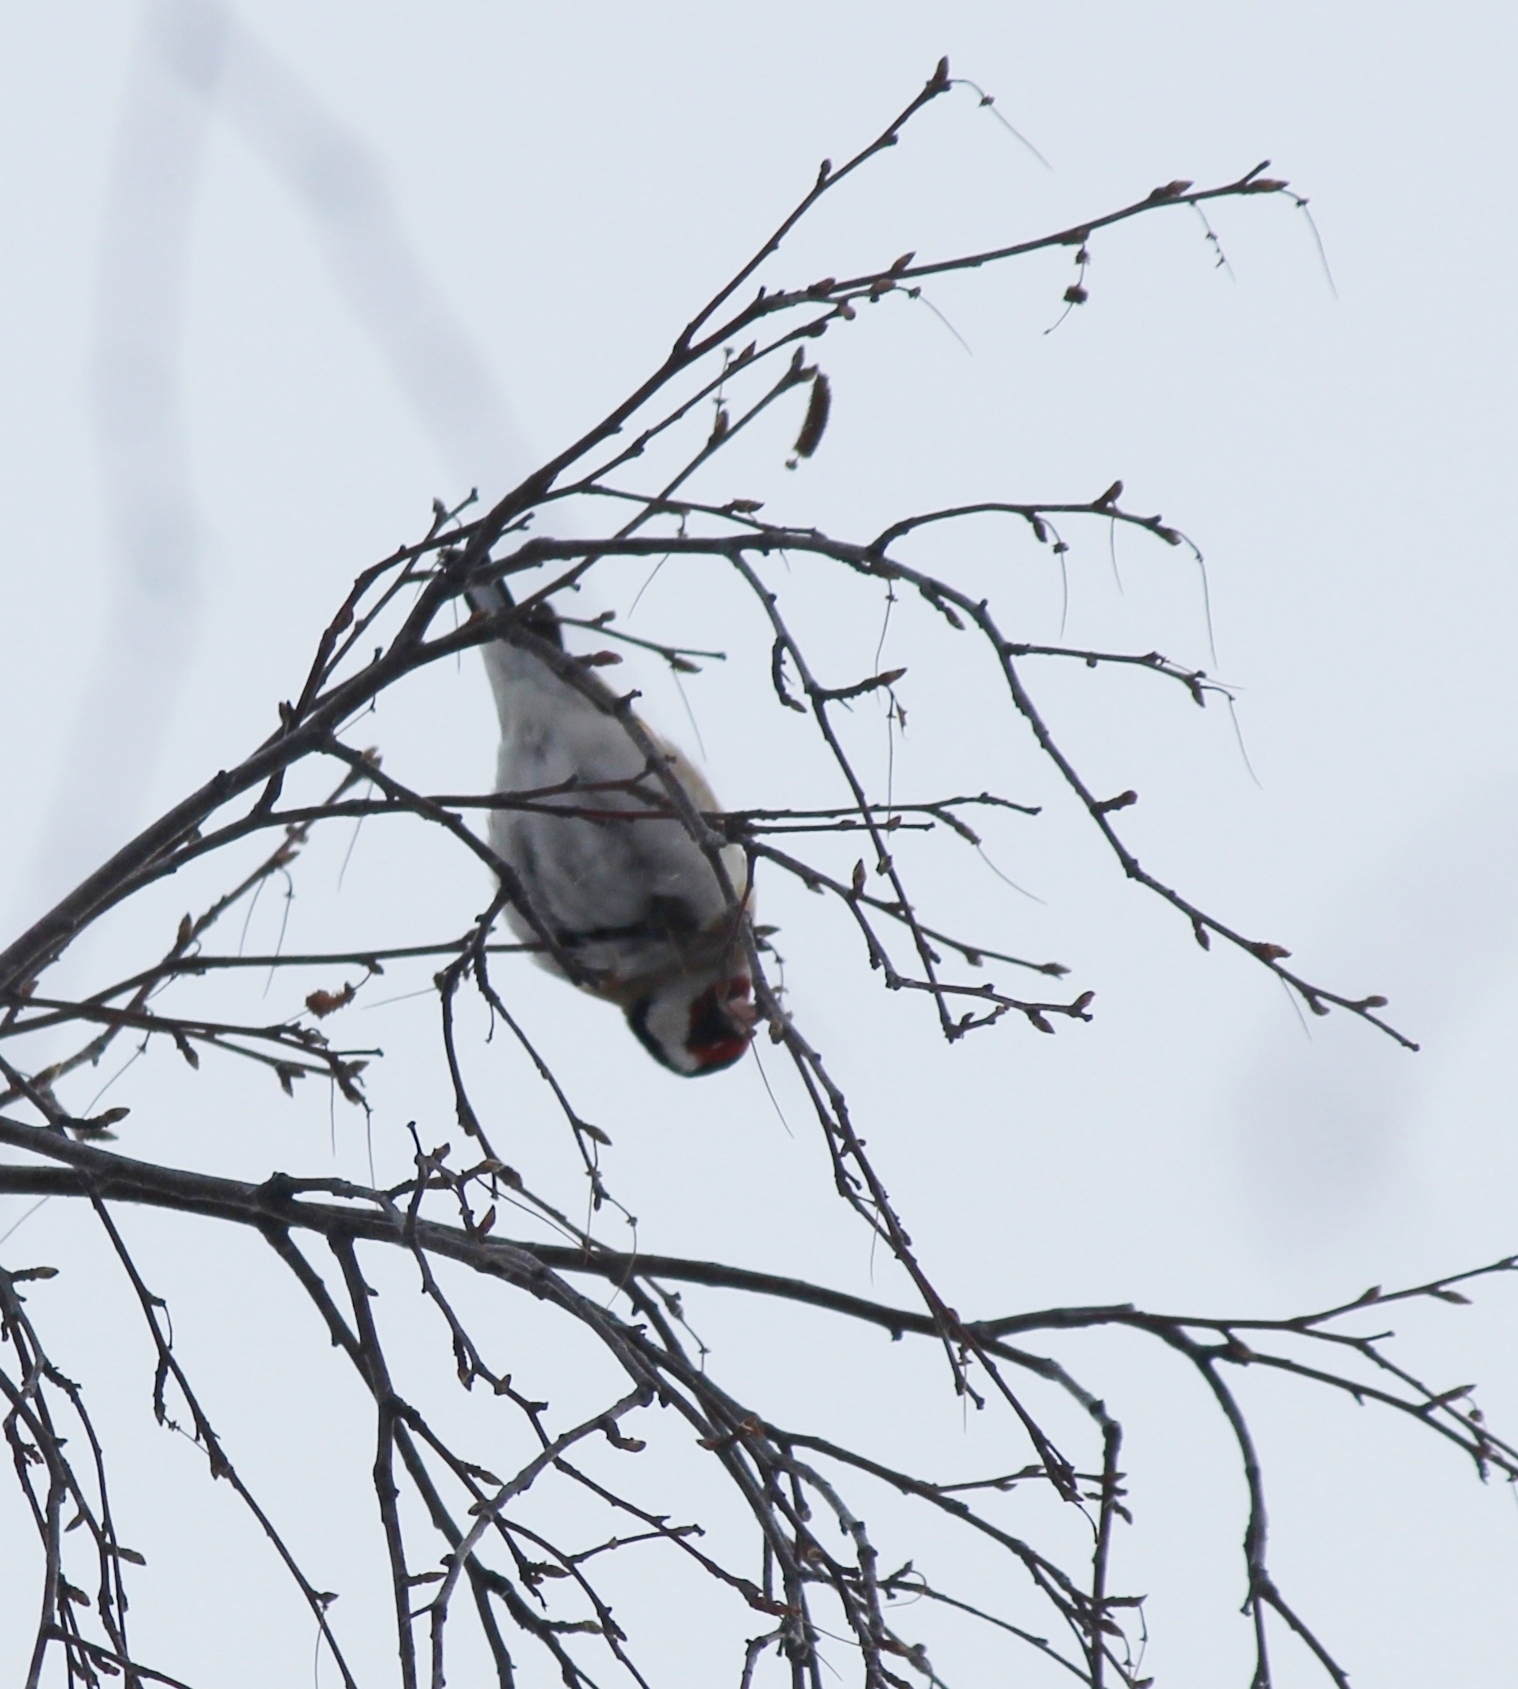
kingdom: Animalia
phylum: Chordata
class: Aves
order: Passeriformes
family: Fringillidae
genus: Carduelis
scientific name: Carduelis carduelis
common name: European goldfinch
